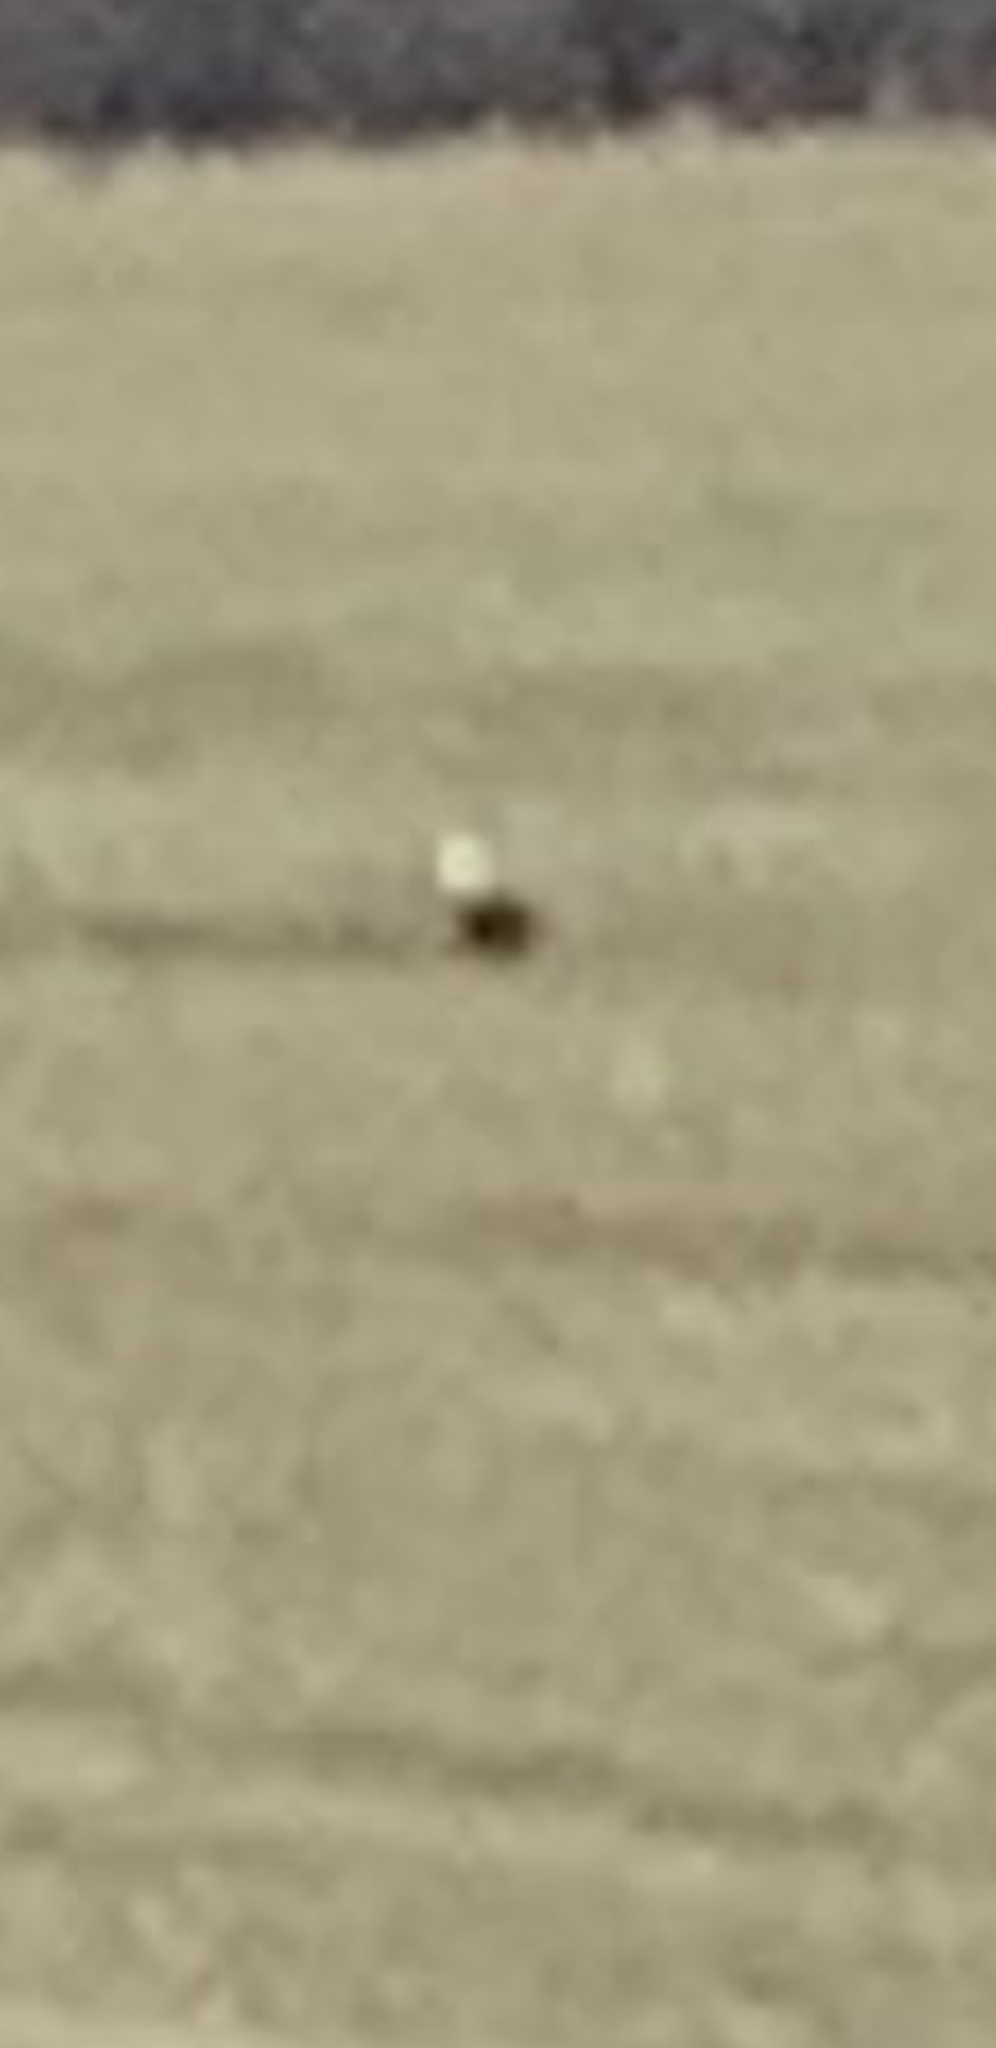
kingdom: Animalia
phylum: Chordata
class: Aves
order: Accipitriformes
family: Accipitridae
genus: Haliaeetus
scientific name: Haliaeetus leucocephalus
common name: Bald eagle
